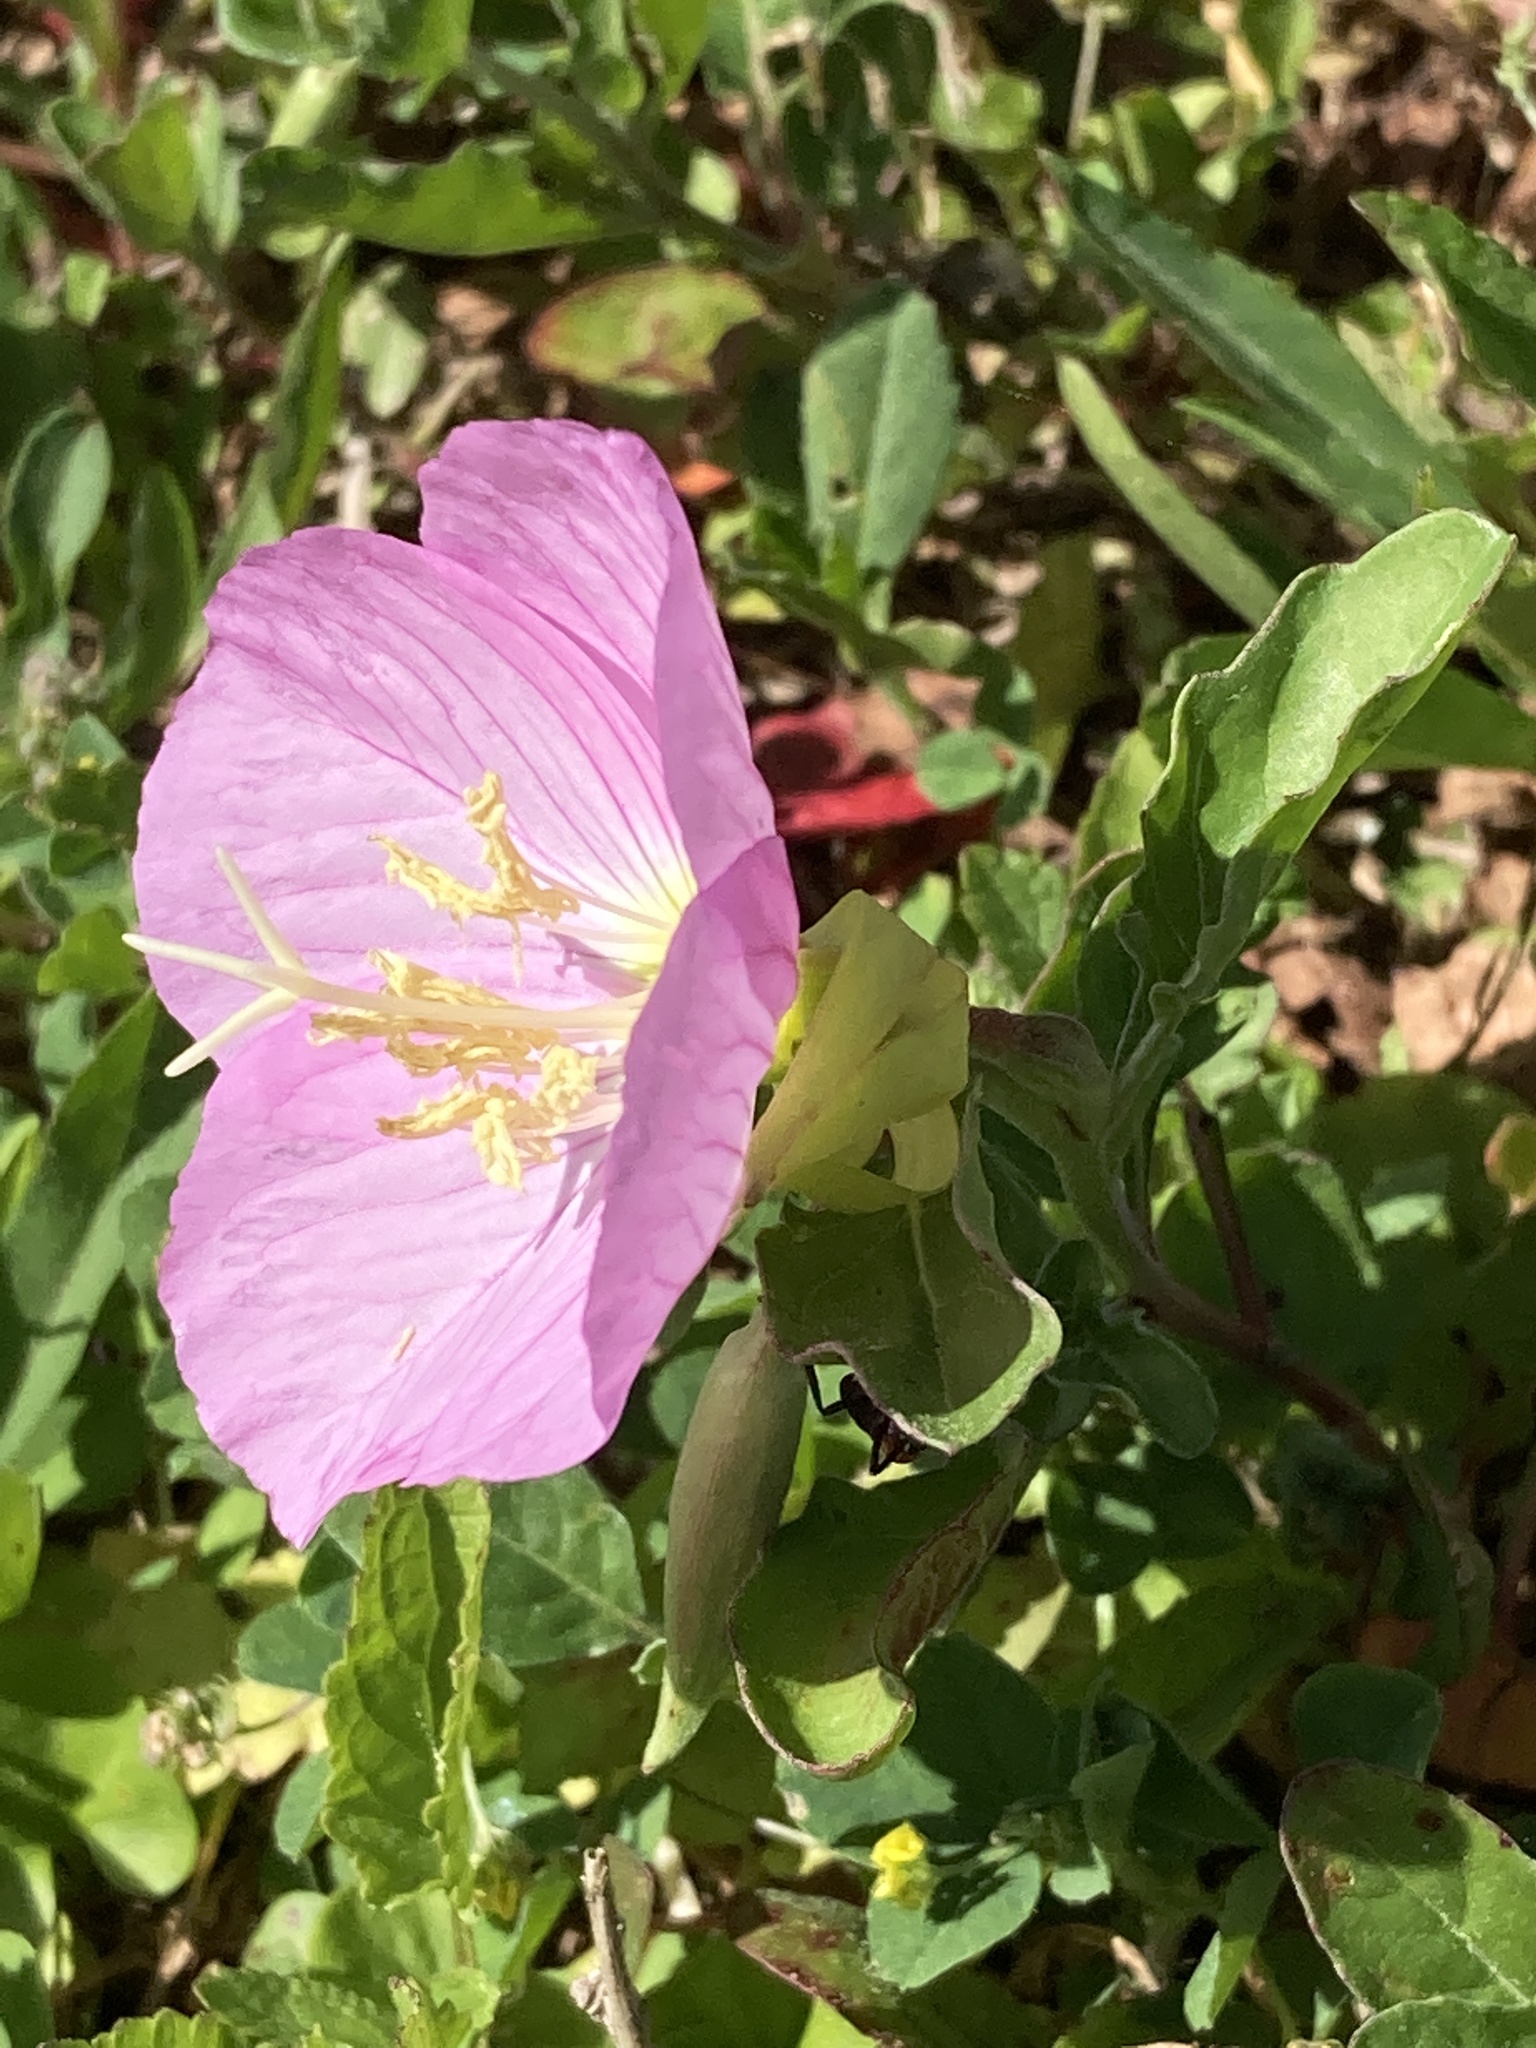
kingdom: Plantae
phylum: Tracheophyta
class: Magnoliopsida
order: Myrtales
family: Onagraceae
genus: Oenothera
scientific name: Oenothera speciosa
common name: White evening-primrose
